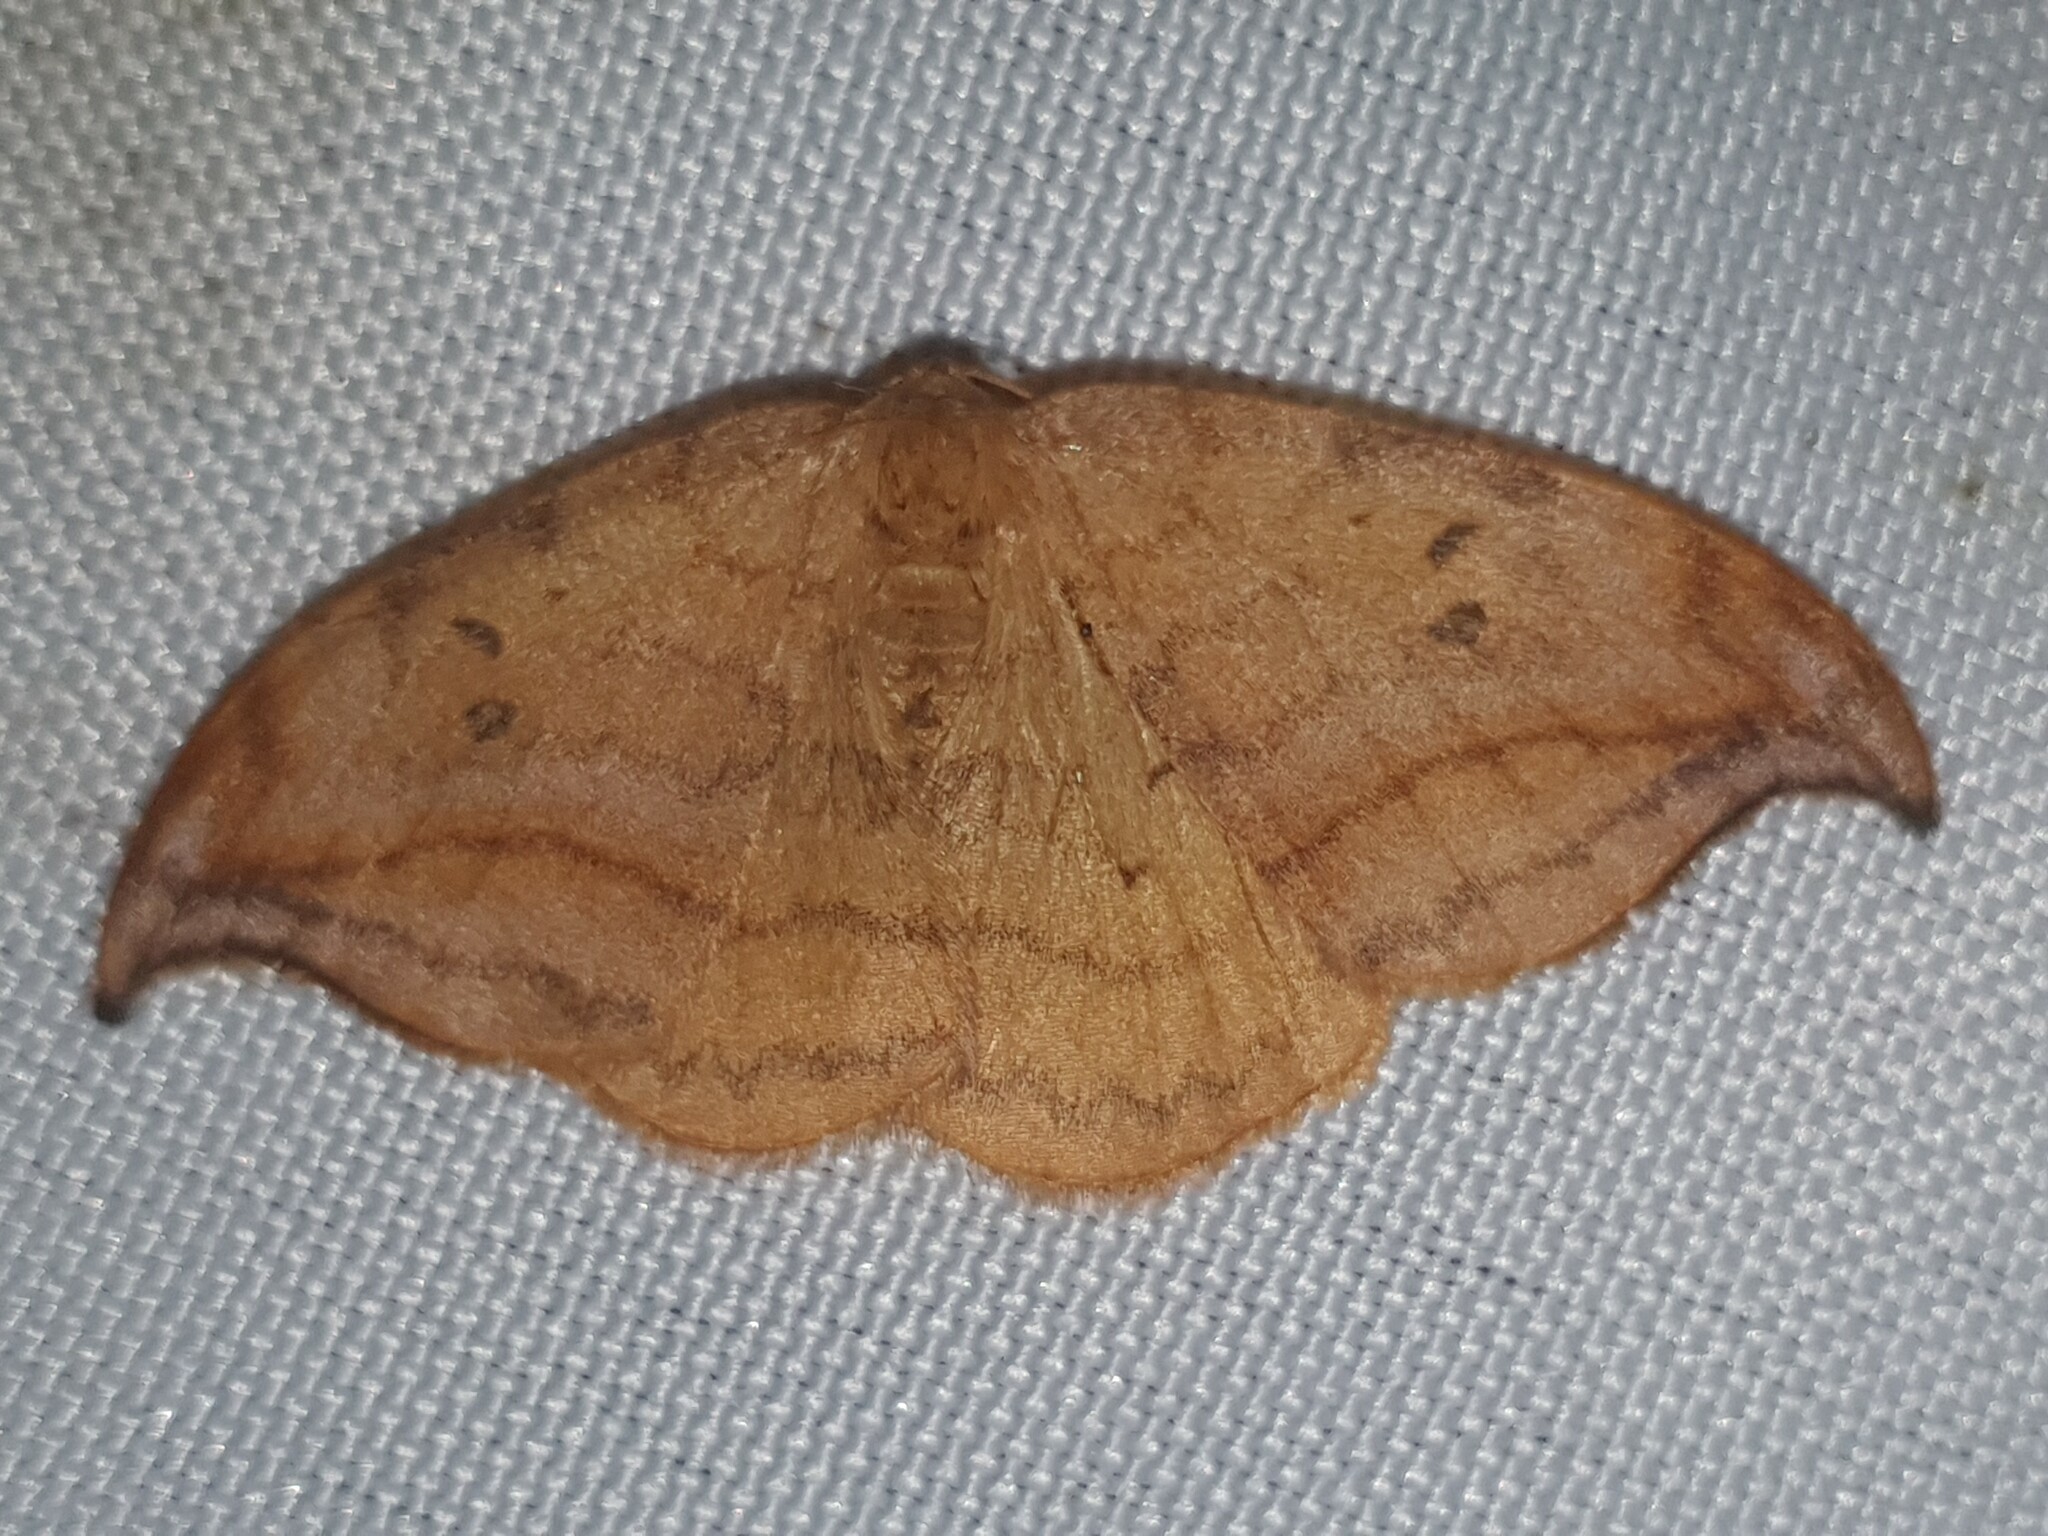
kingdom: Animalia
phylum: Arthropoda
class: Insecta
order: Lepidoptera
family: Drepanidae
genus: Drepana
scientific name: Drepana curvatula
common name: Dusky hook-tip
